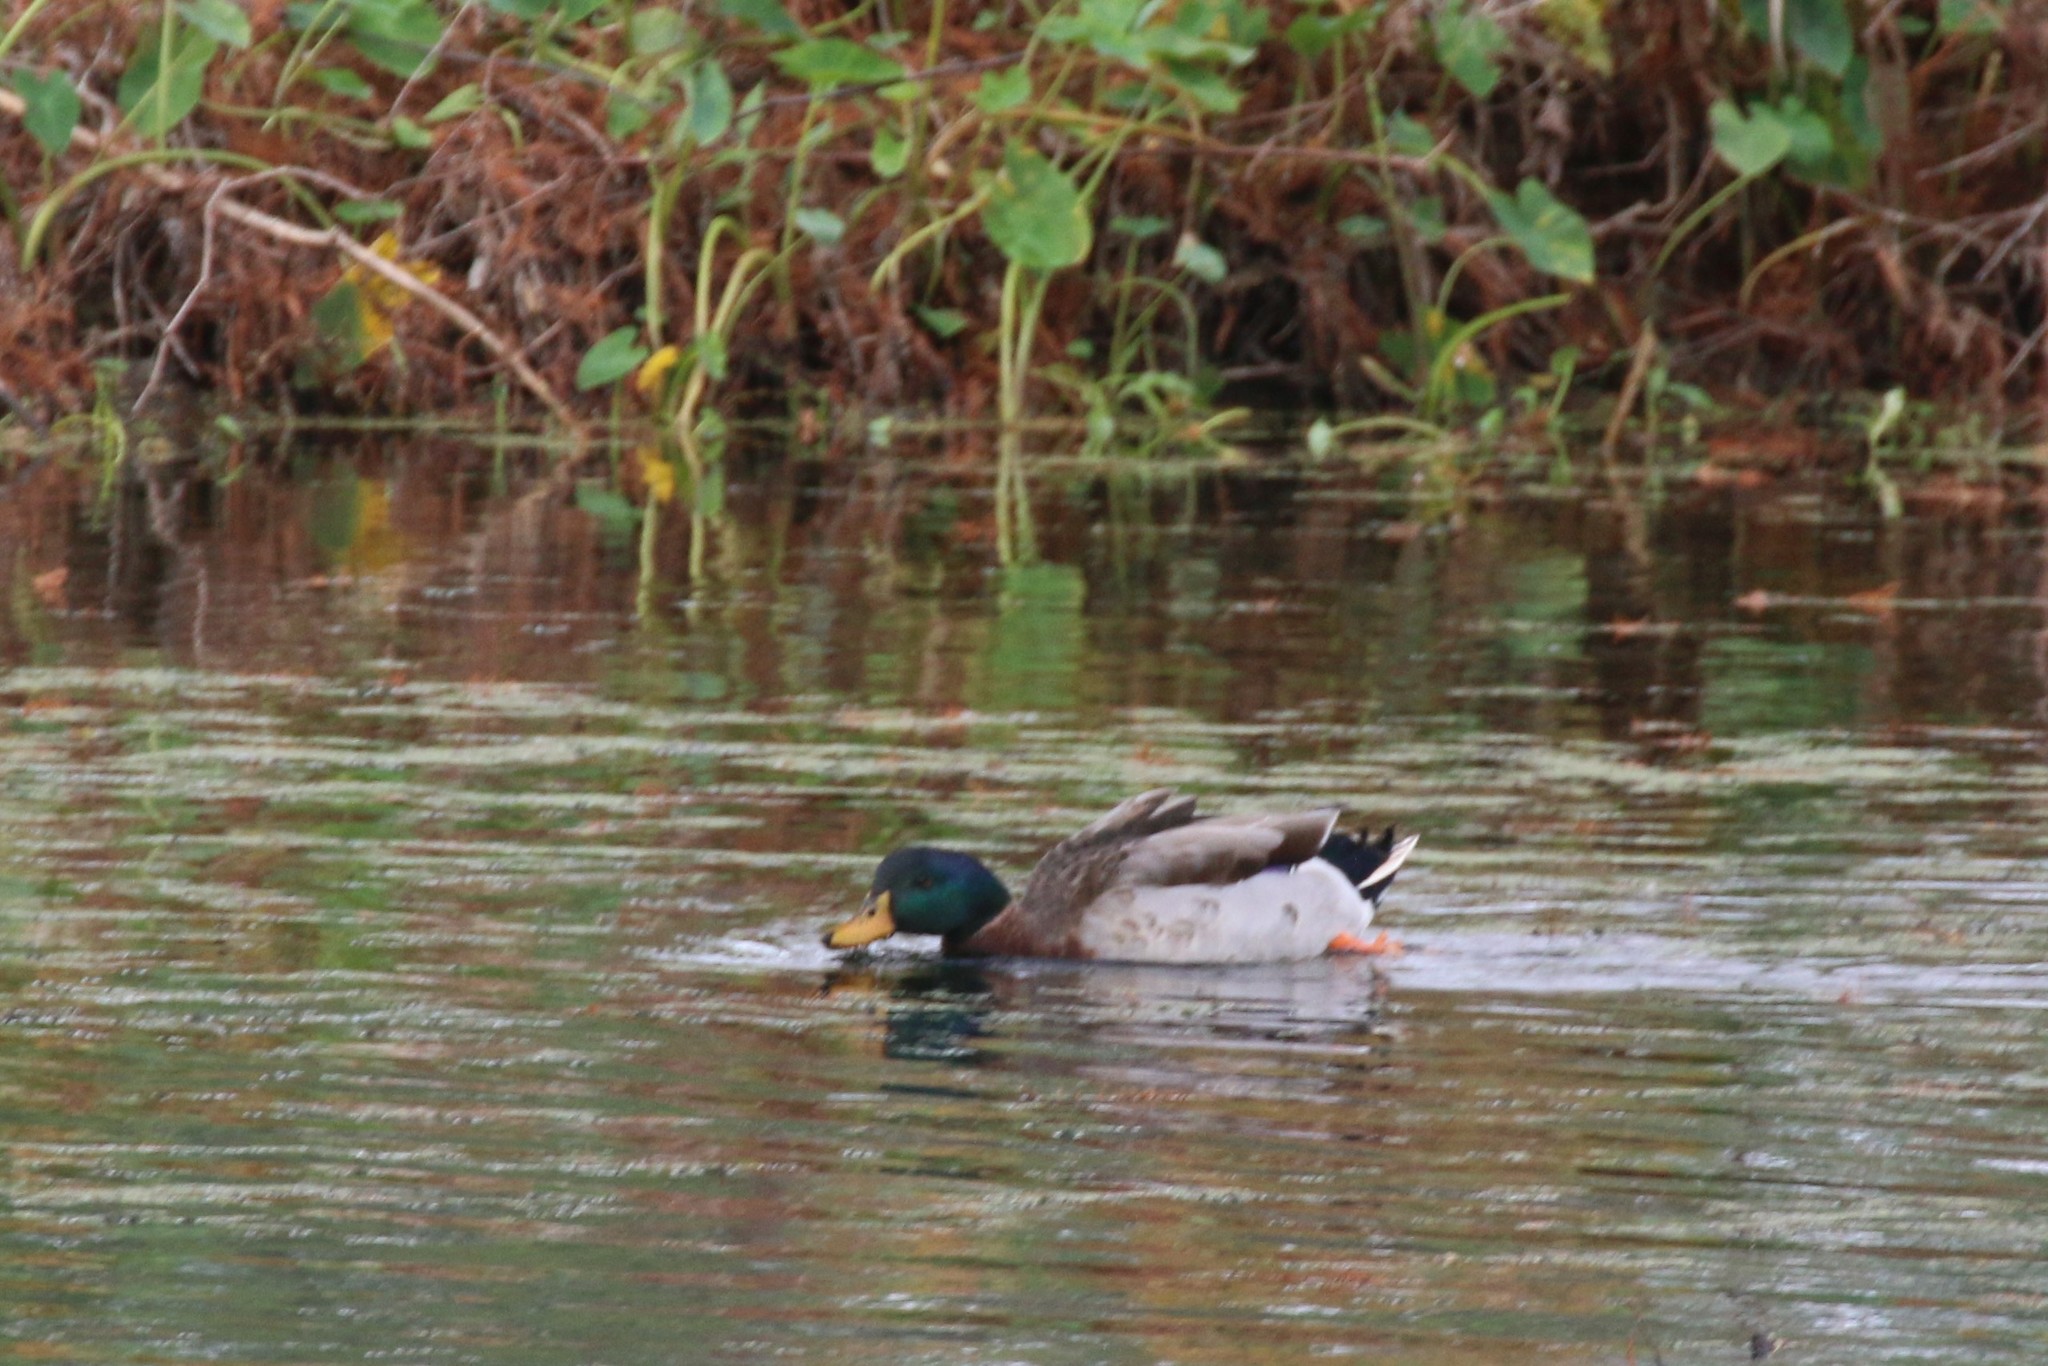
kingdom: Animalia
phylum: Chordata
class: Aves
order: Anseriformes
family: Anatidae
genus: Anas
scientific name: Anas platyrhynchos
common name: Mallard
